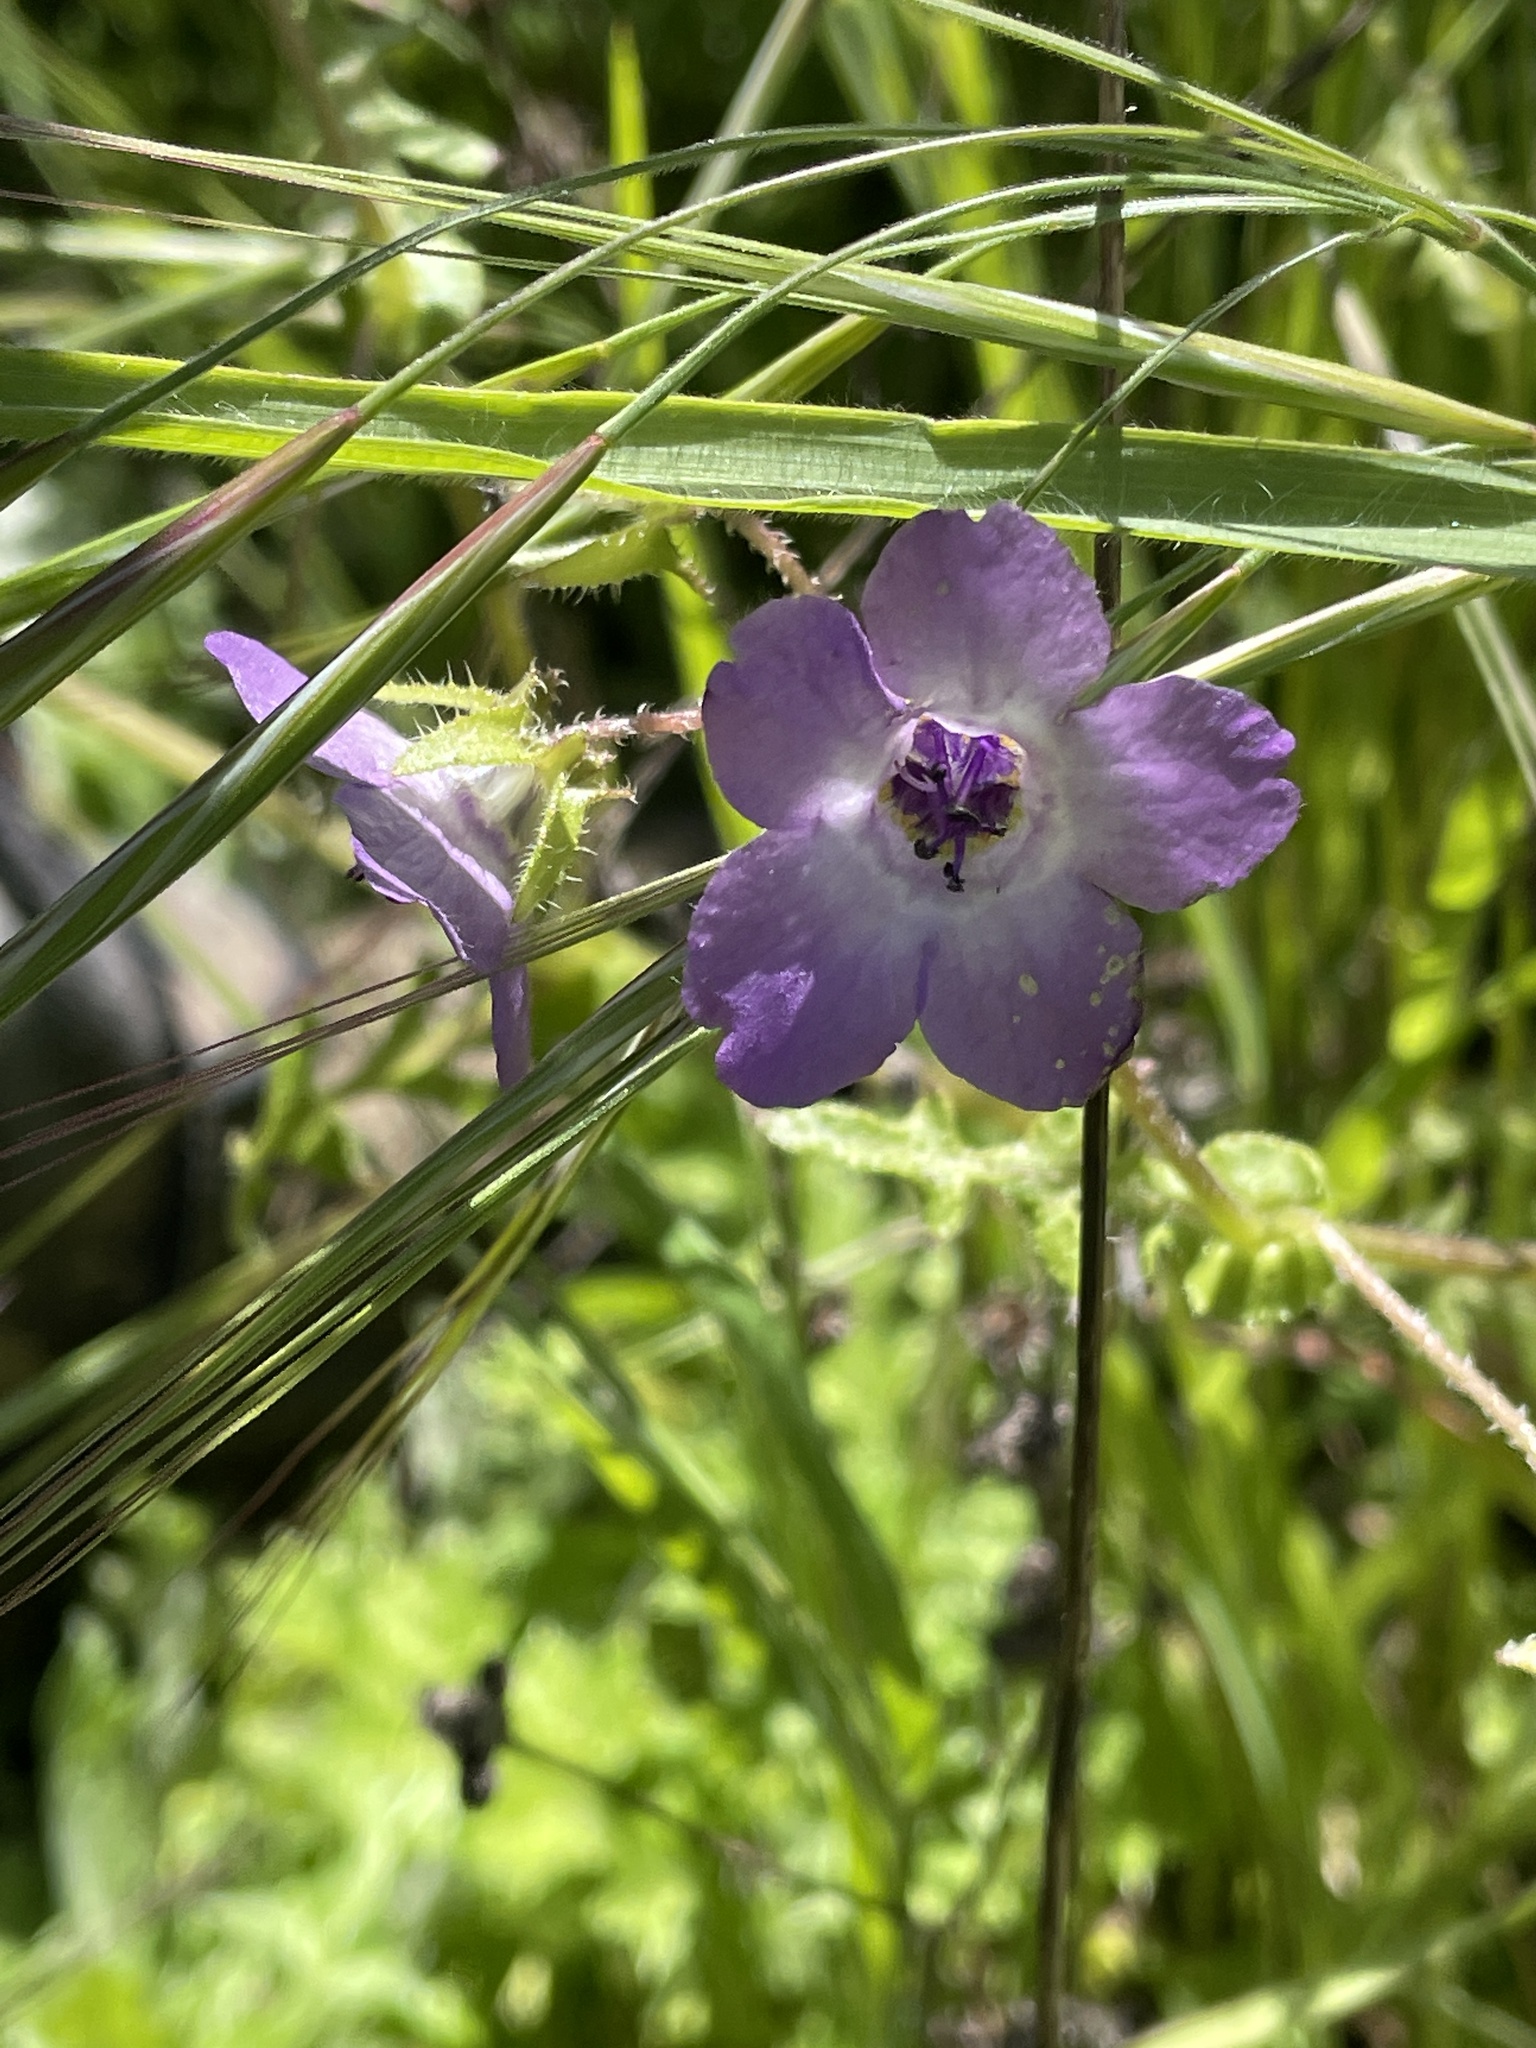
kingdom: Plantae
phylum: Tracheophyta
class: Magnoliopsida
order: Boraginales
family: Hydrophyllaceae
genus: Pholistoma
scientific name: Pholistoma auritum
